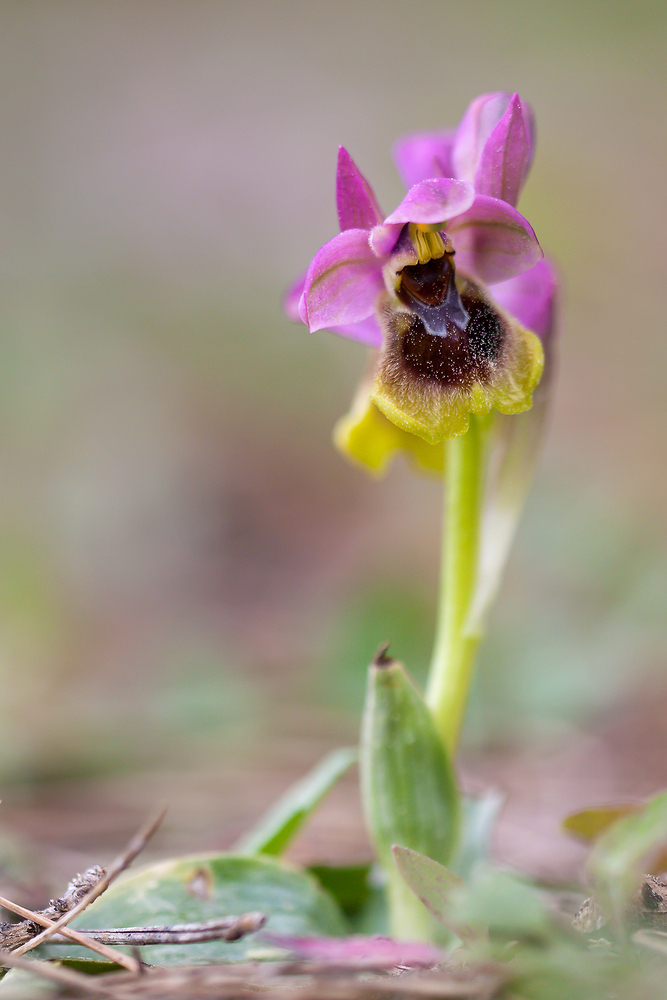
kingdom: Plantae
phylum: Tracheophyta
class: Liliopsida
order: Asparagales
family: Orchidaceae
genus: Ophrys
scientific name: Ophrys tenthredinifera
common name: Sawfly orchid
